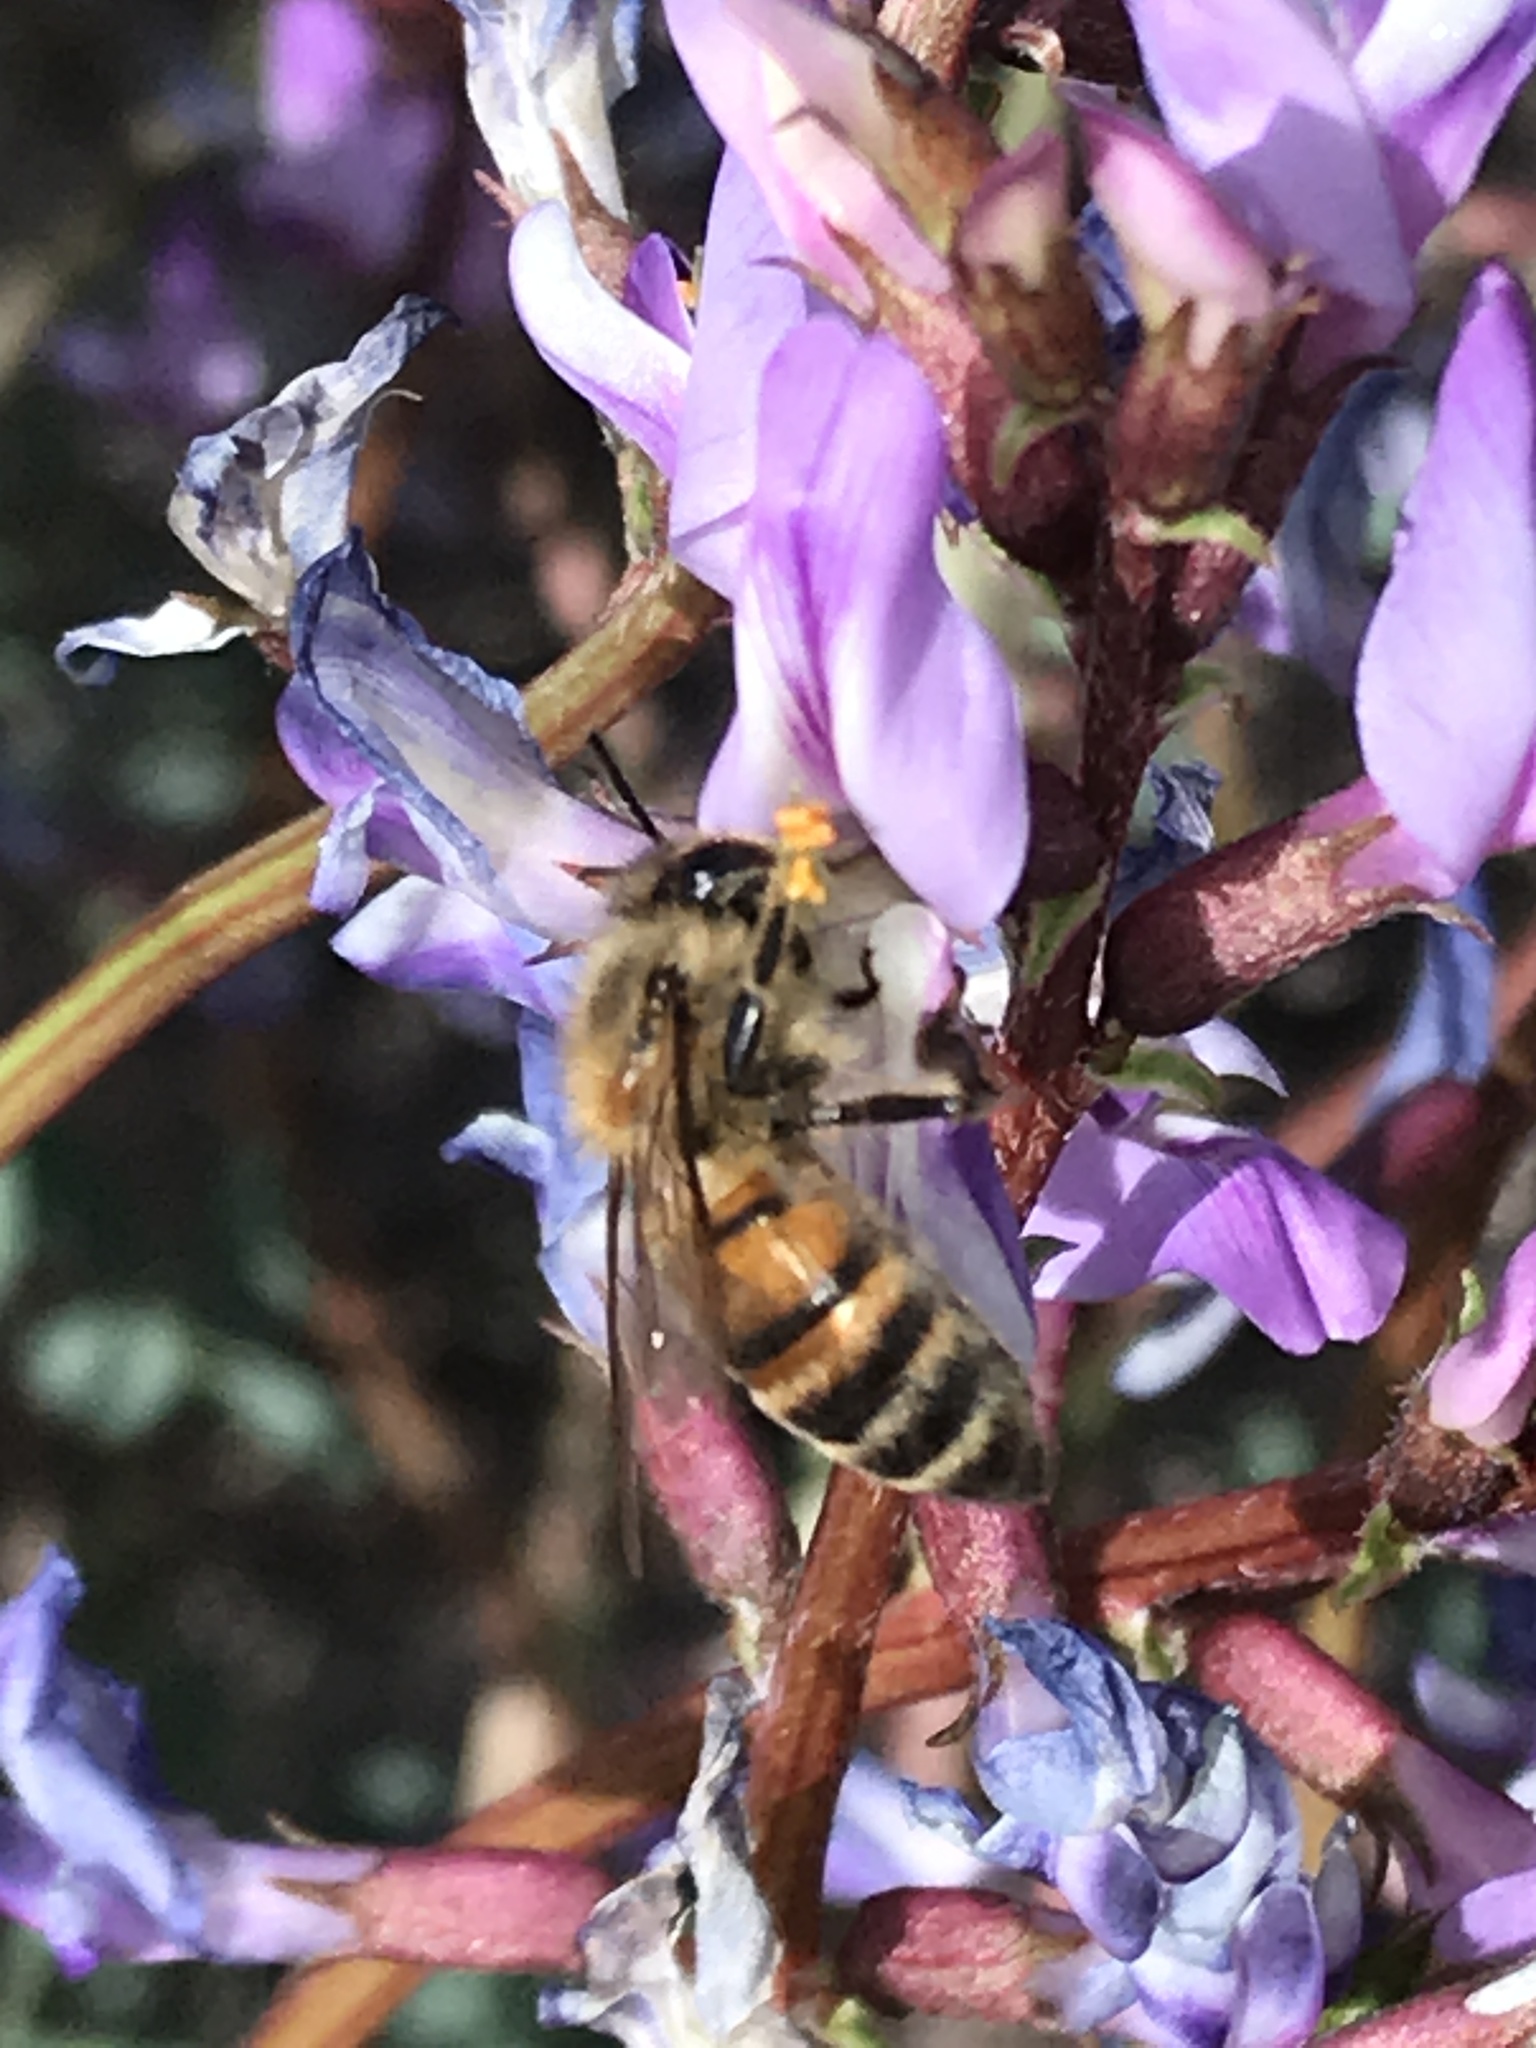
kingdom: Animalia
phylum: Arthropoda
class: Insecta
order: Hymenoptera
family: Apidae
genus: Apis
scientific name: Apis mellifera
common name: Honey bee
